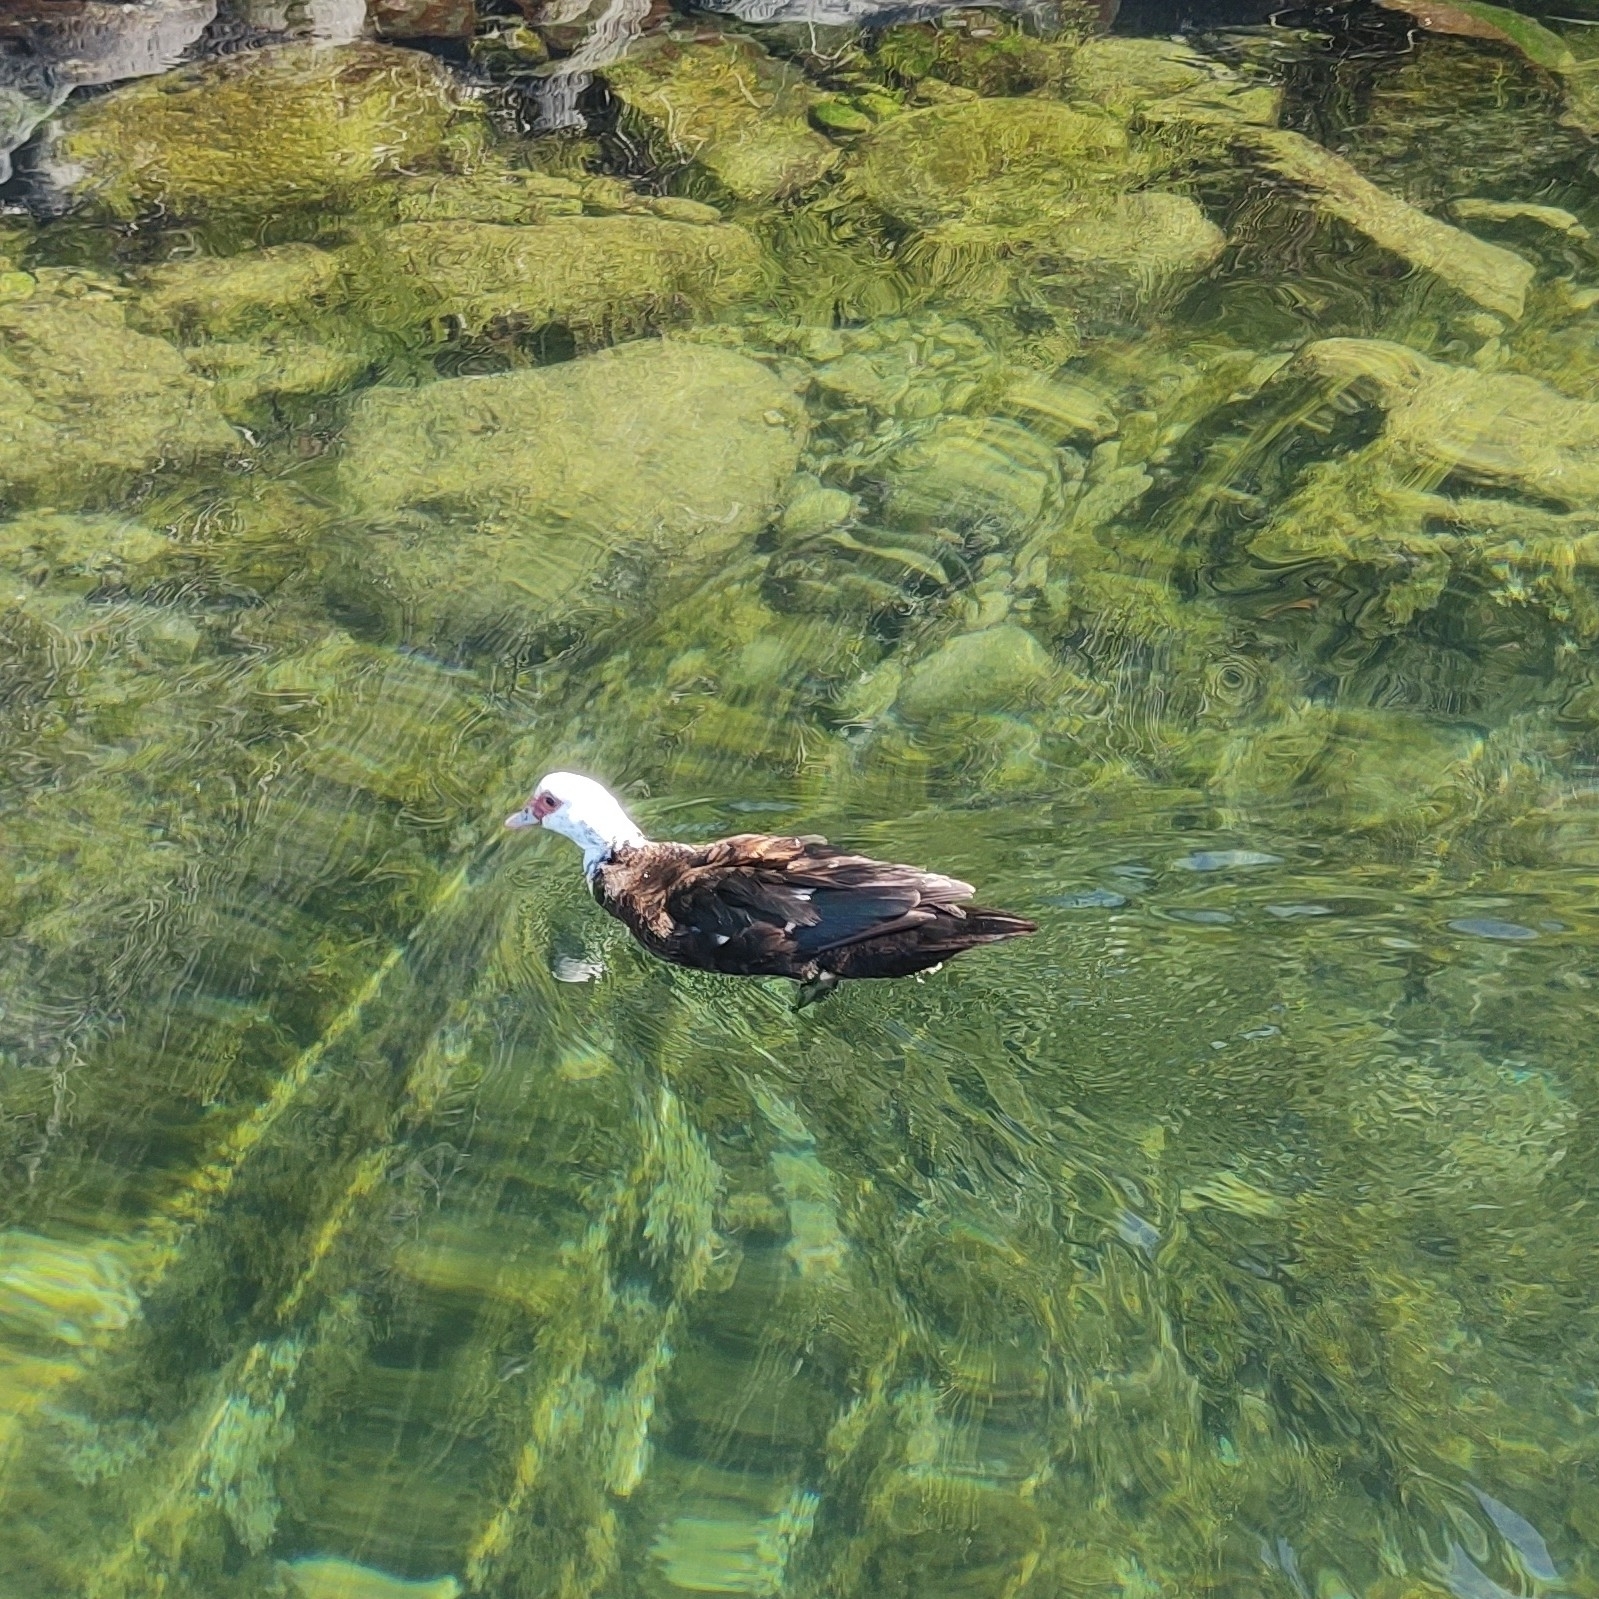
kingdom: Animalia
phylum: Chordata
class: Aves
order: Anseriformes
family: Anatidae
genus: Cairina
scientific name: Cairina moschata
